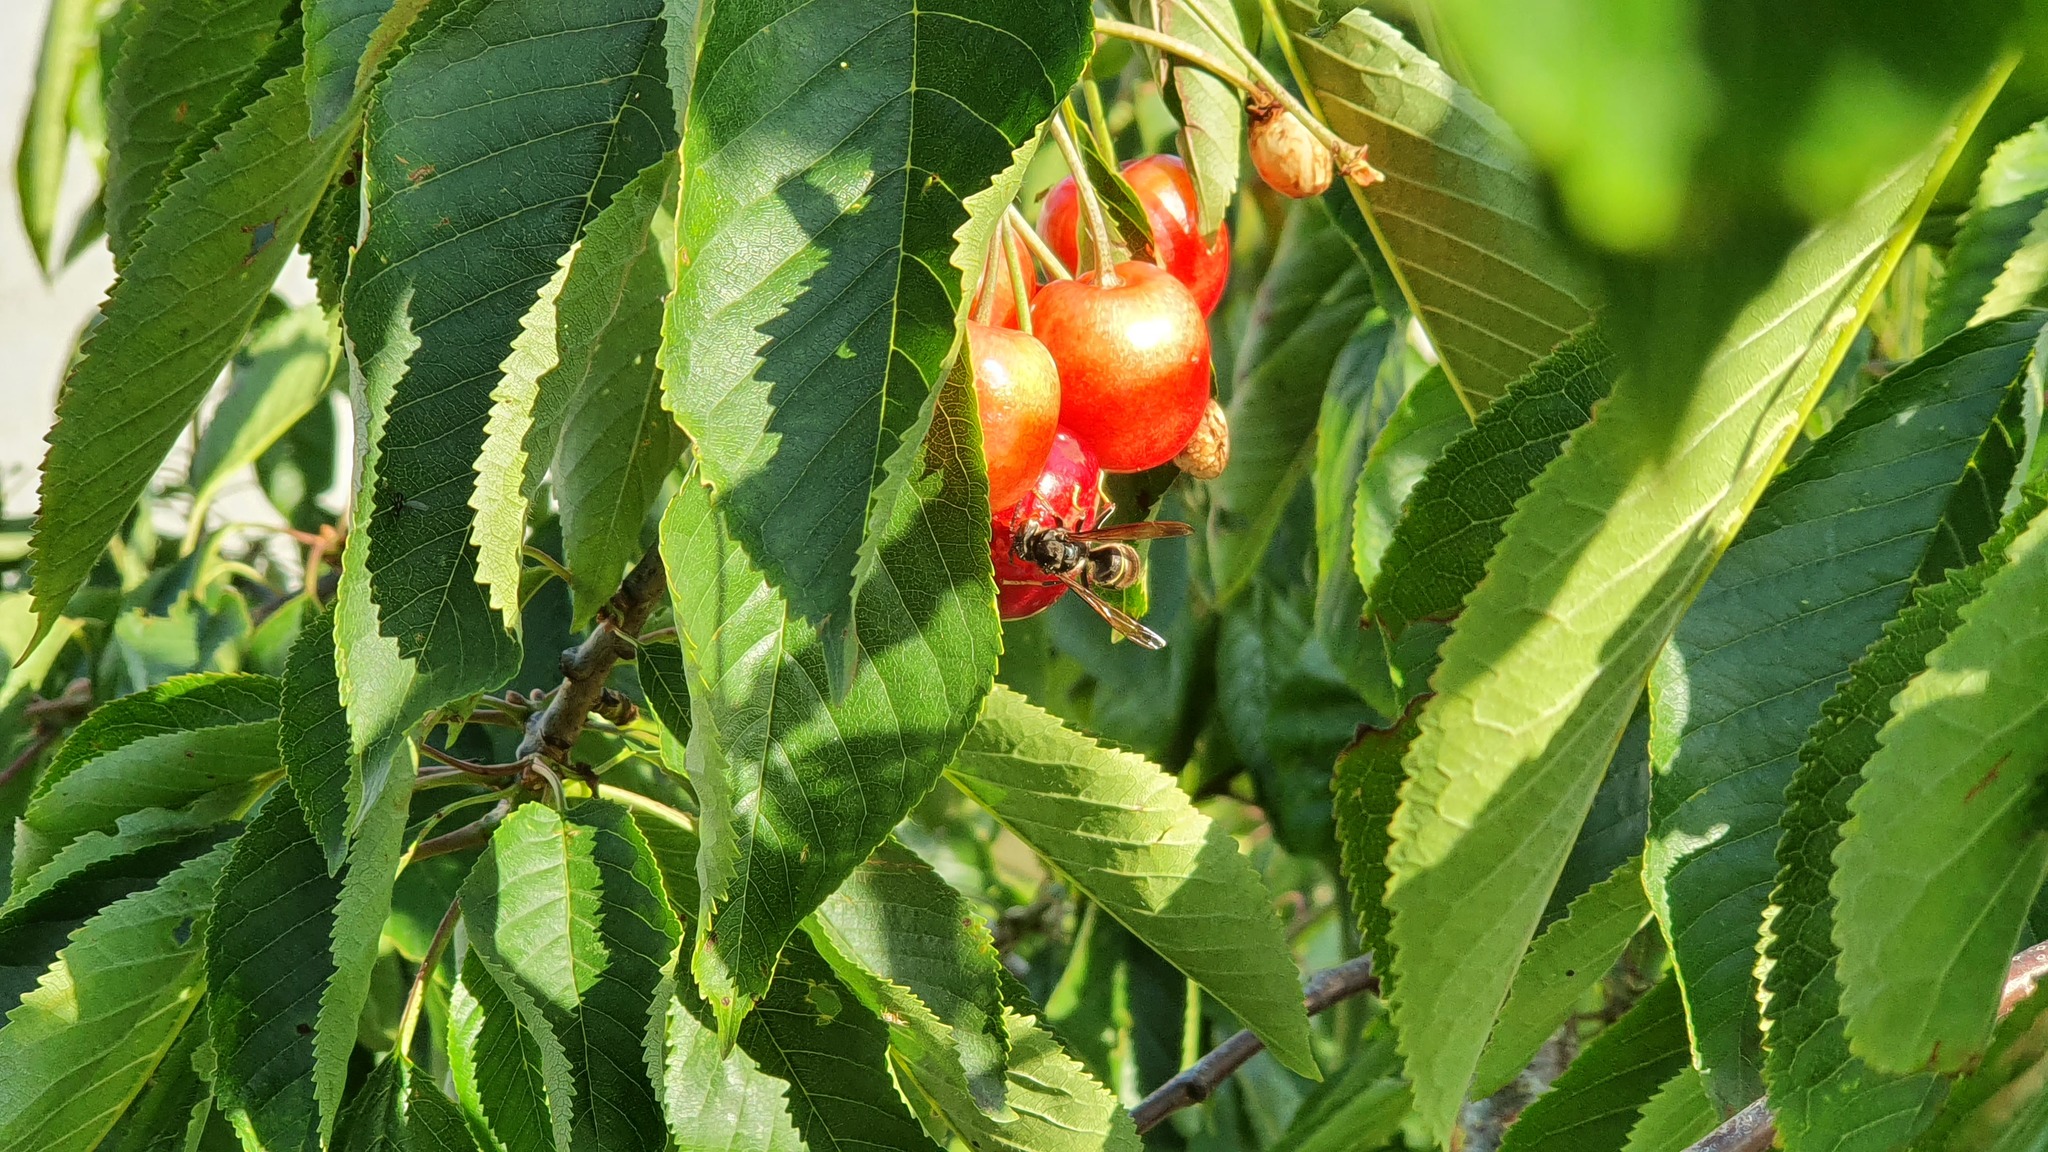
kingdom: Animalia
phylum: Arthropoda
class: Insecta
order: Hymenoptera
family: Vespidae
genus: Vespa
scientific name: Vespa velutina
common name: Asian hornet
